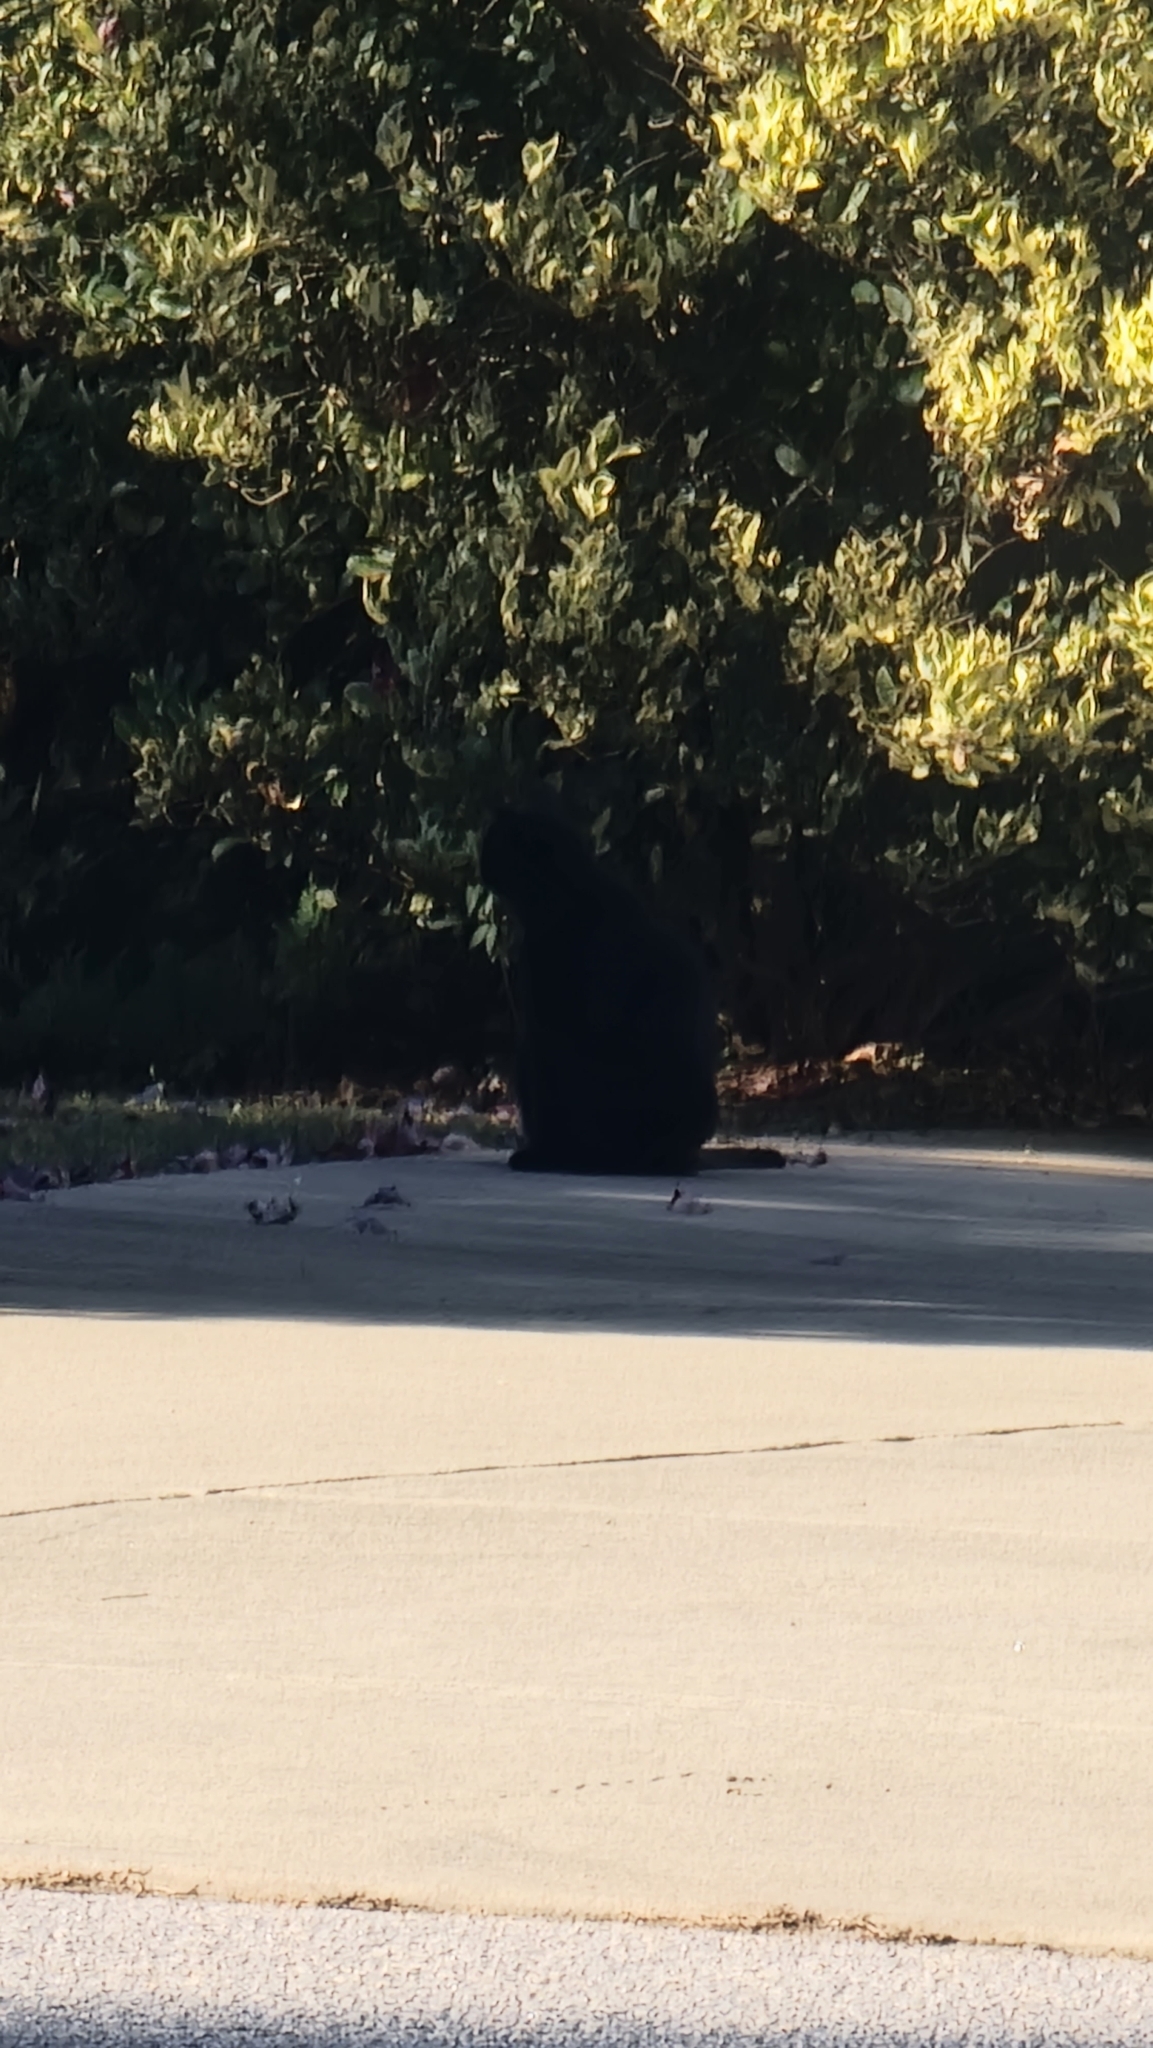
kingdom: Animalia
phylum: Chordata
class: Mammalia
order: Carnivora
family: Felidae
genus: Felis
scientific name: Felis catus
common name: Domestic cat
